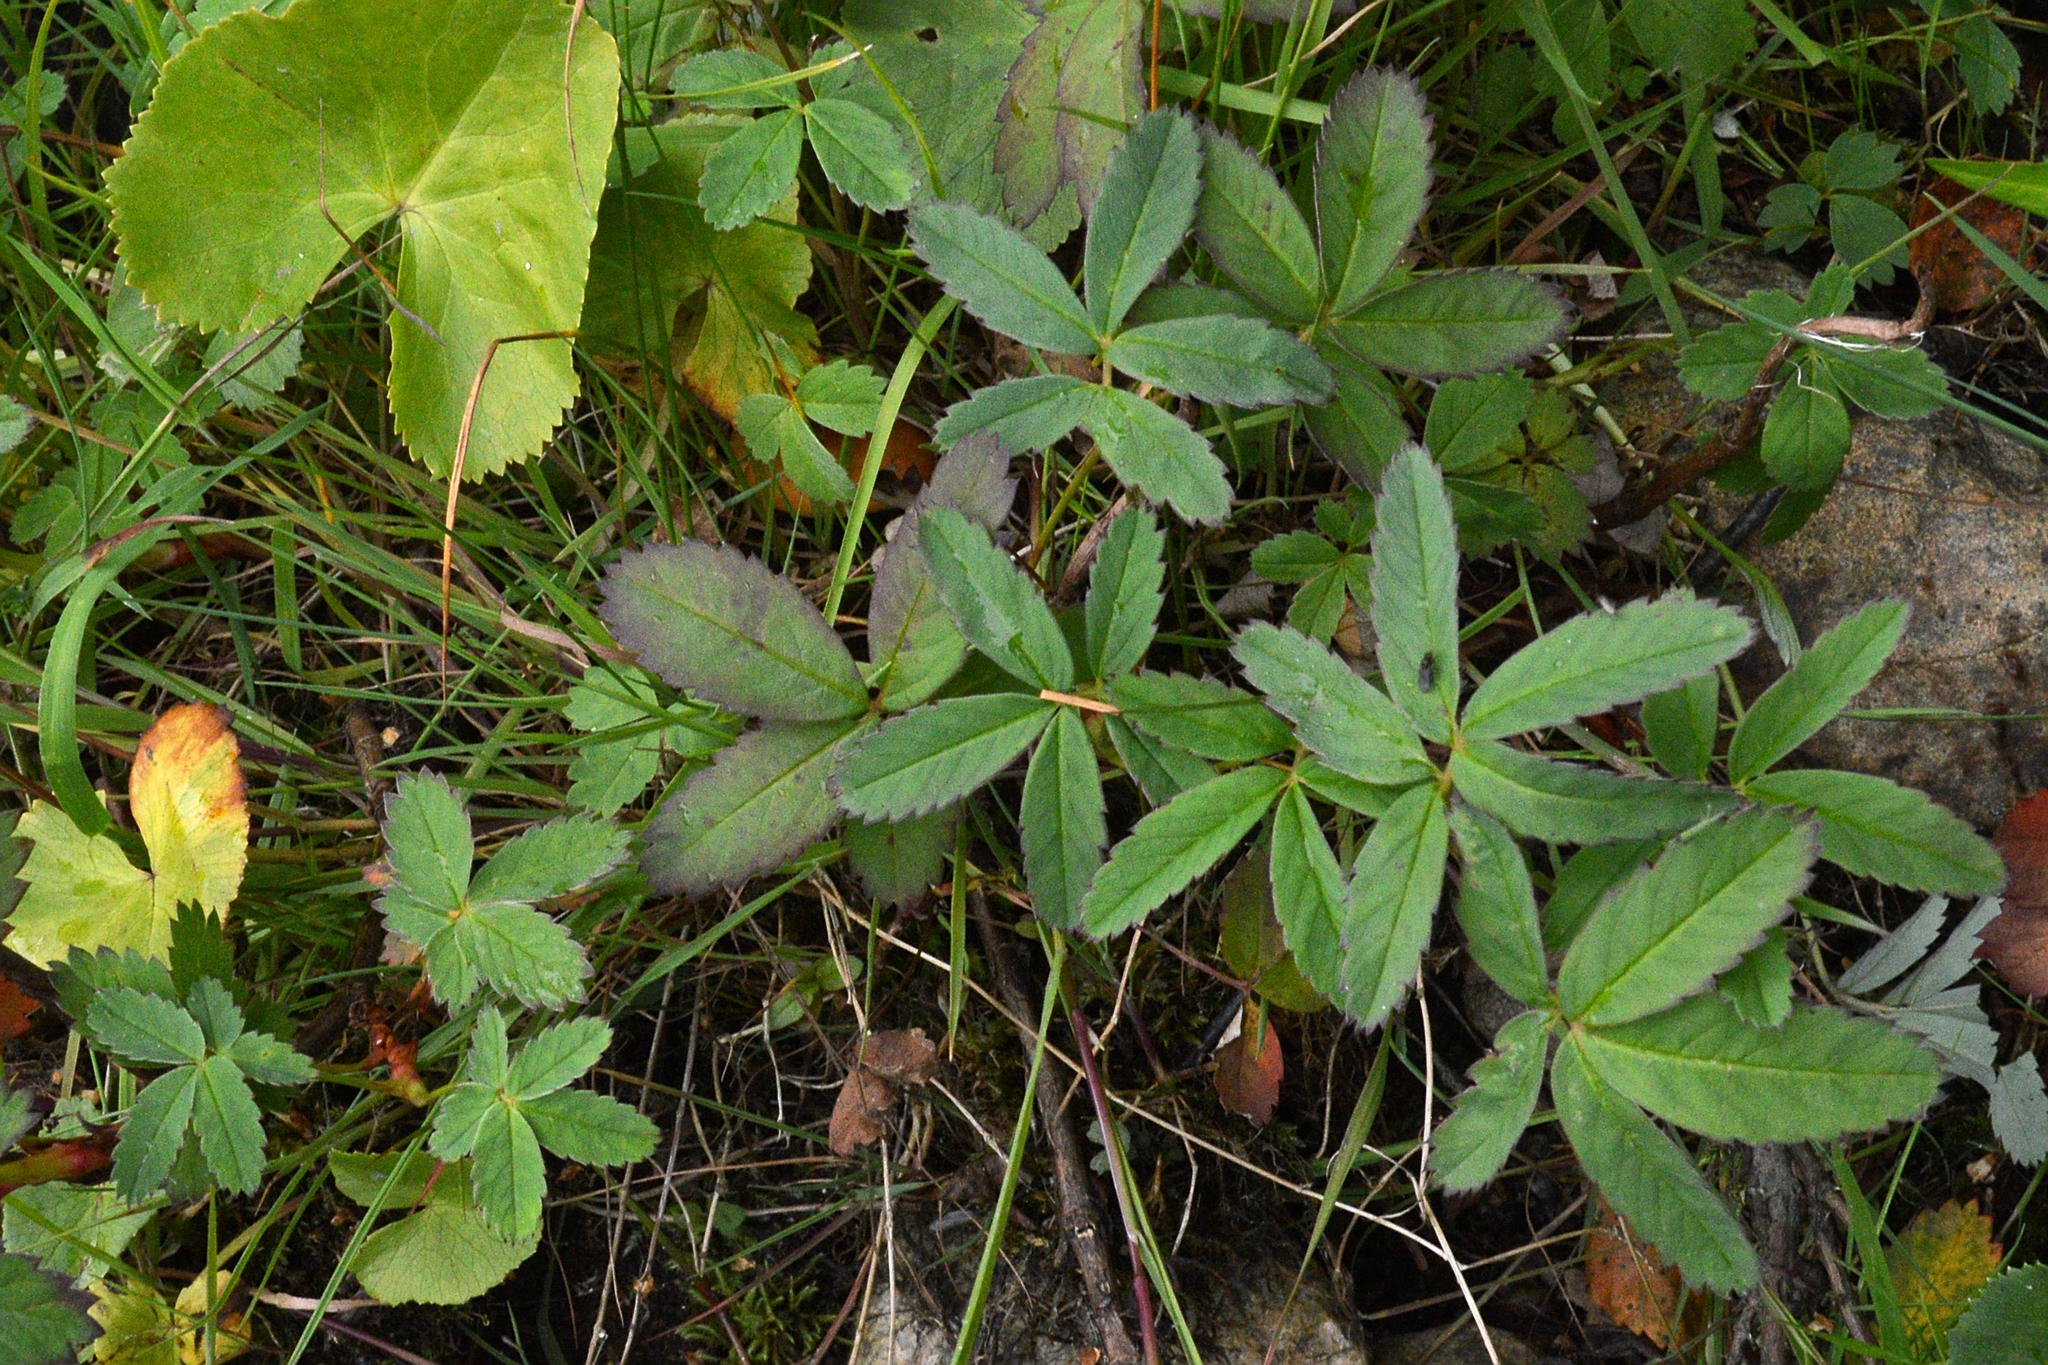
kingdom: Plantae
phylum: Tracheophyta
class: Magnoliopsida
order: Rosales
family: Rosaceae
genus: Comarum
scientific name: Comarum palustre
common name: Marsh cinquefoil
